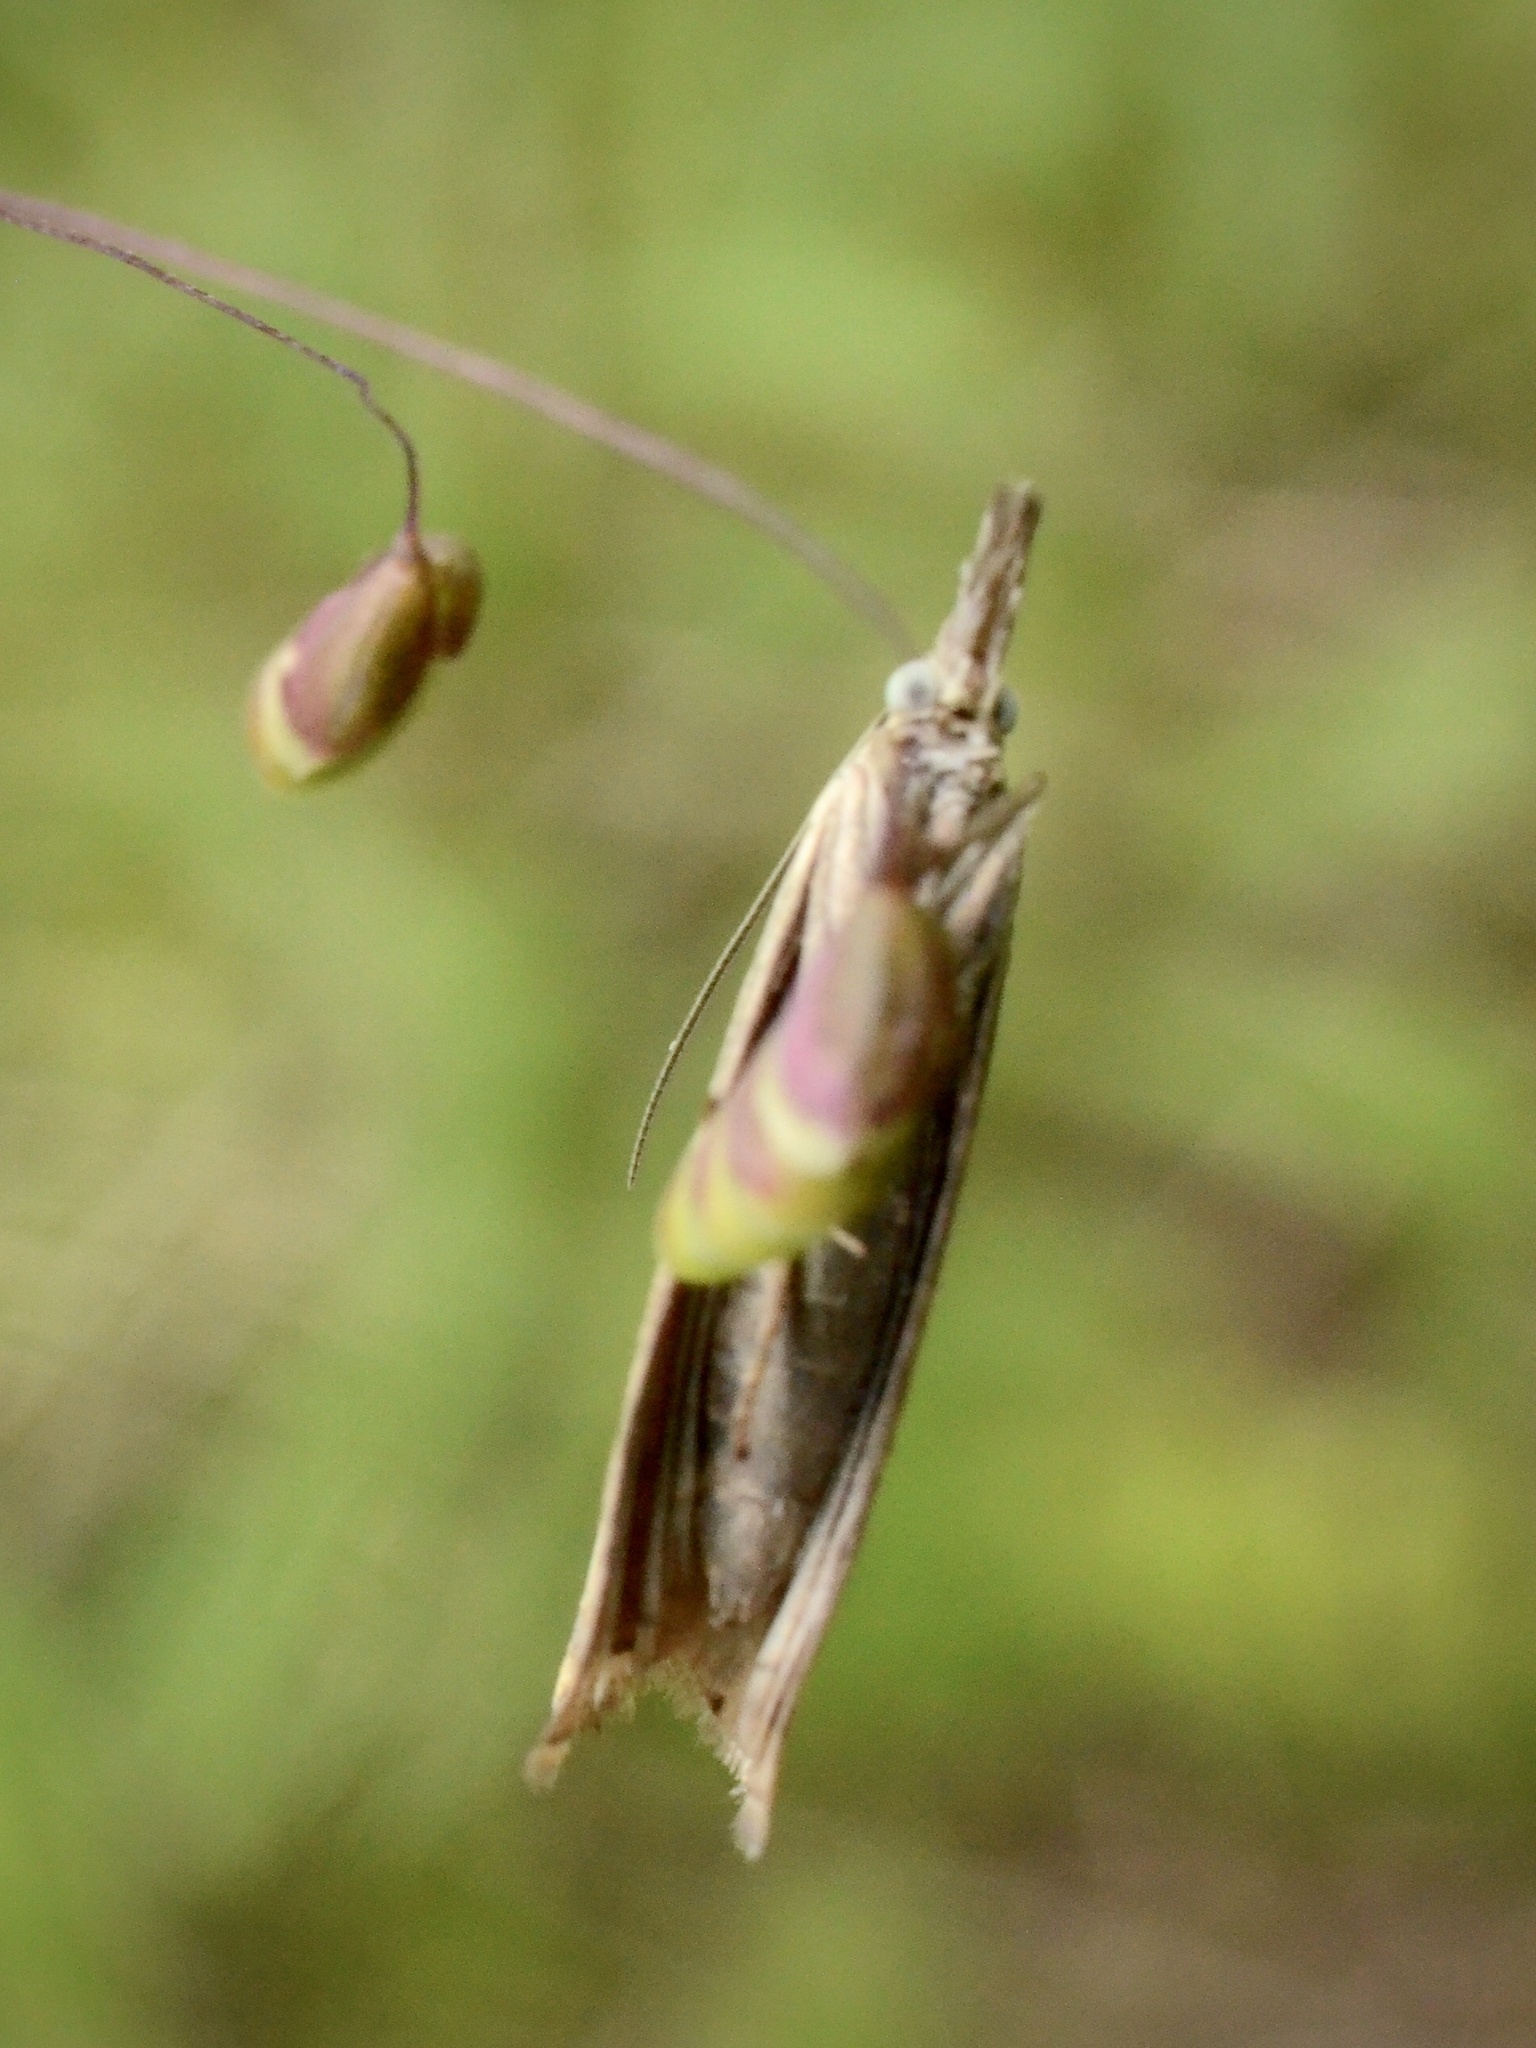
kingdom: Animalia
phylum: Arthropoda
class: Insecta
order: Lepidoptera
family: Crambidae
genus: Chrysoteuchia
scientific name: Chrysoteuchia culmella
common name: Garden grass-veneer
